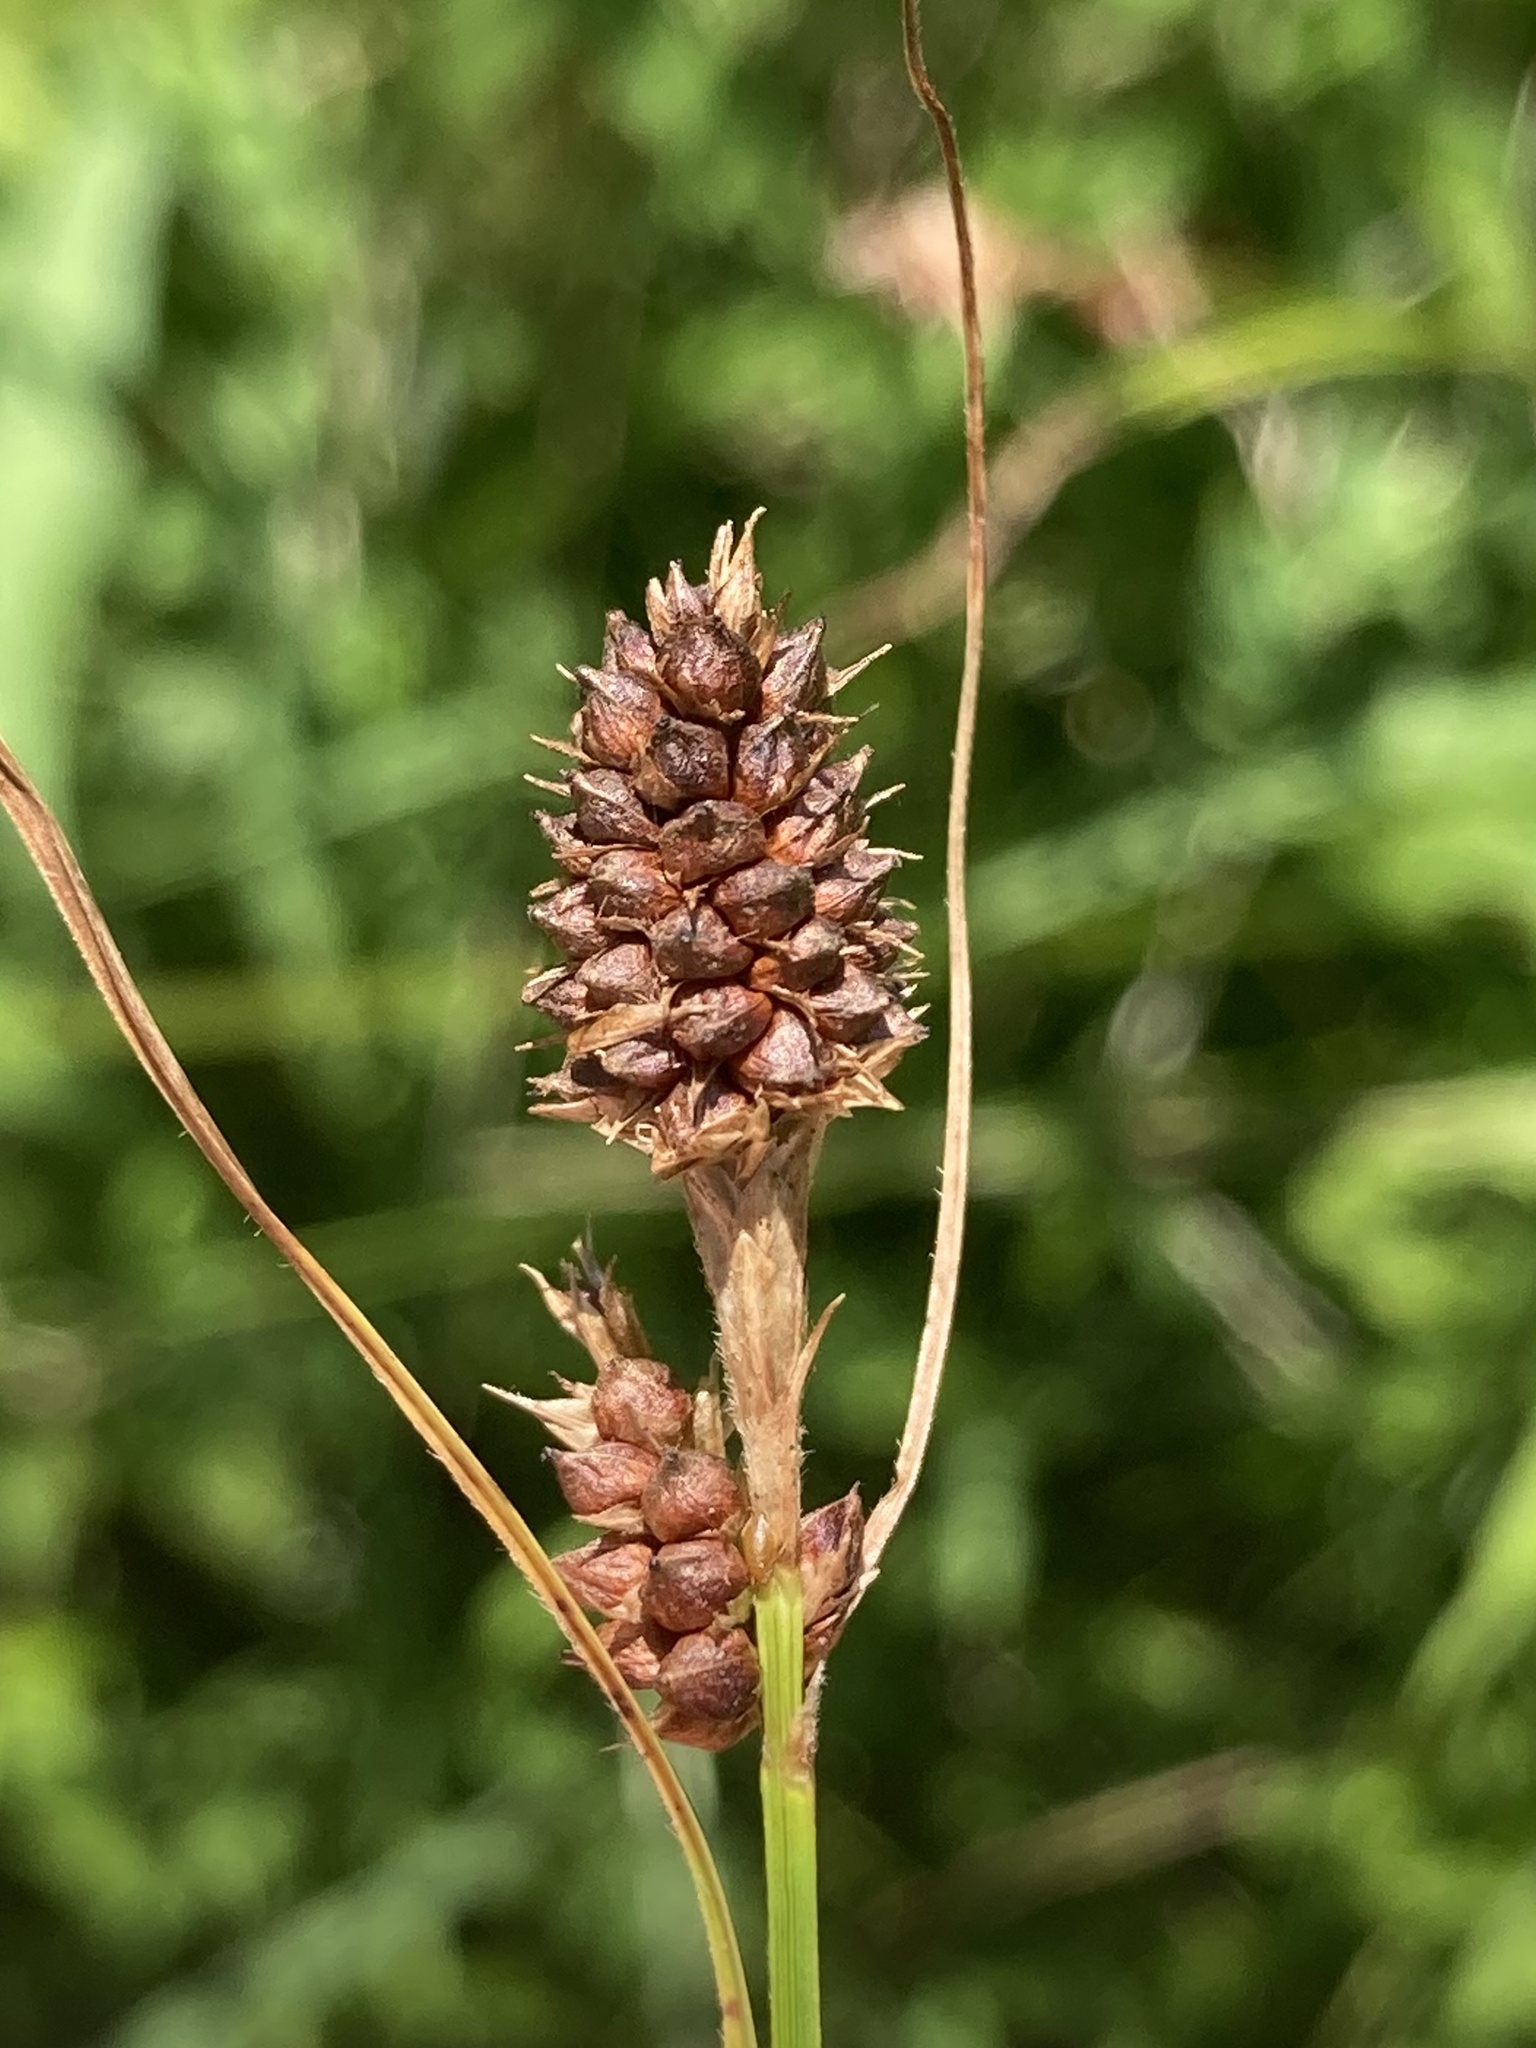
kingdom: Plantae
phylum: Tracheophyta
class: Liliopsida
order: Poales
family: Cyperaceae
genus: Carex
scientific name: Carex bushii
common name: Bush's sedge
